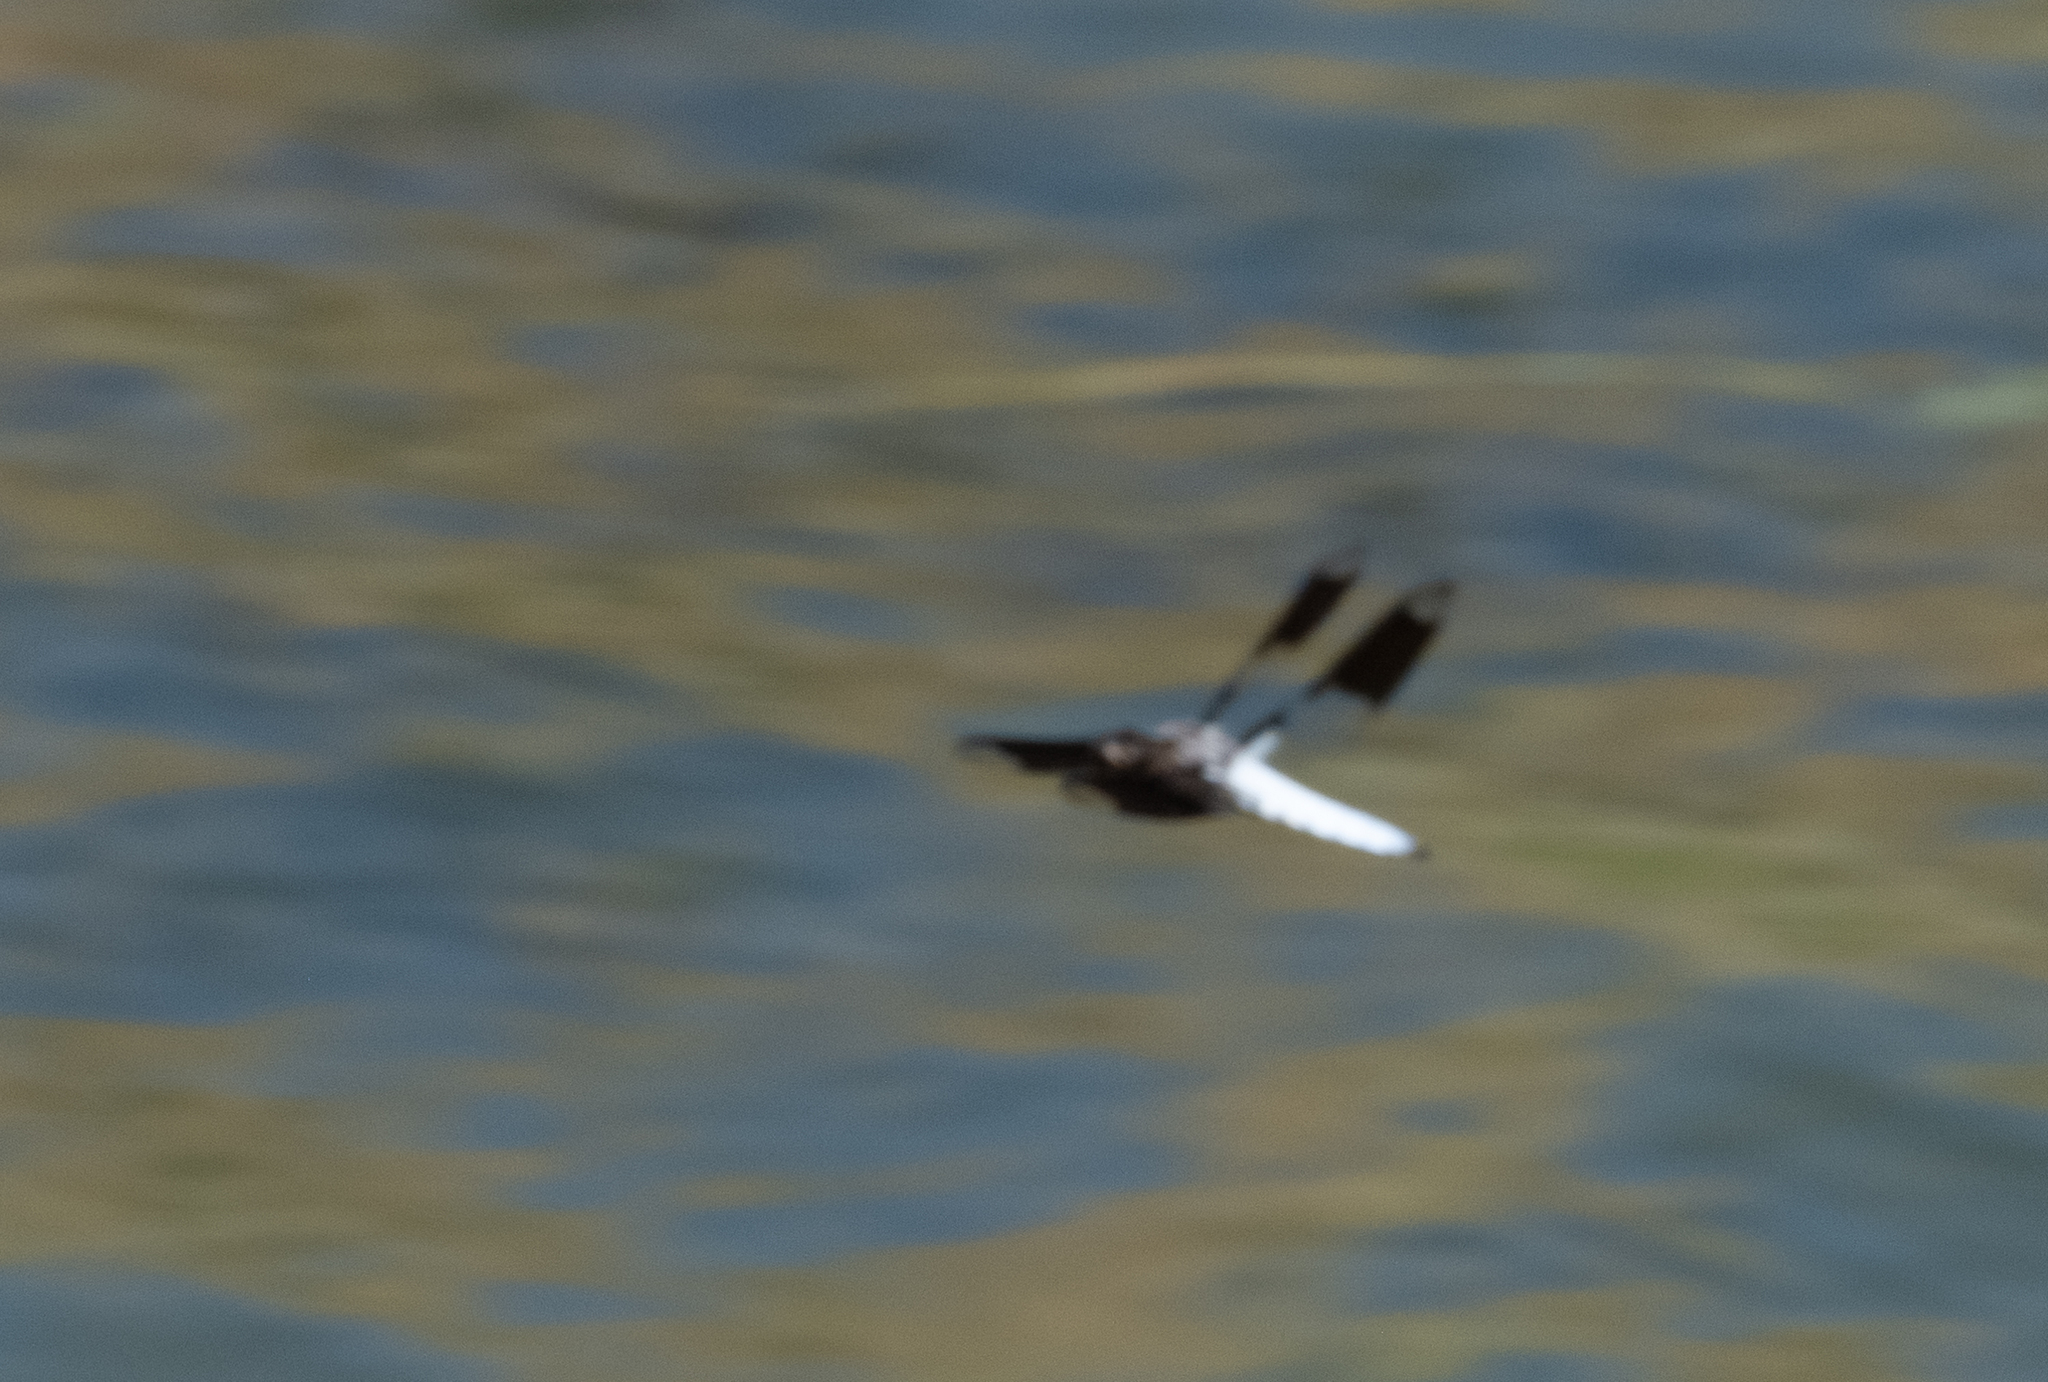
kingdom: Animalia
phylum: Arthropoda
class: Insecta
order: Odonata
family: Libellulidae
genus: Plathemis
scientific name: Plathemis lydia
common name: Common whitetail
